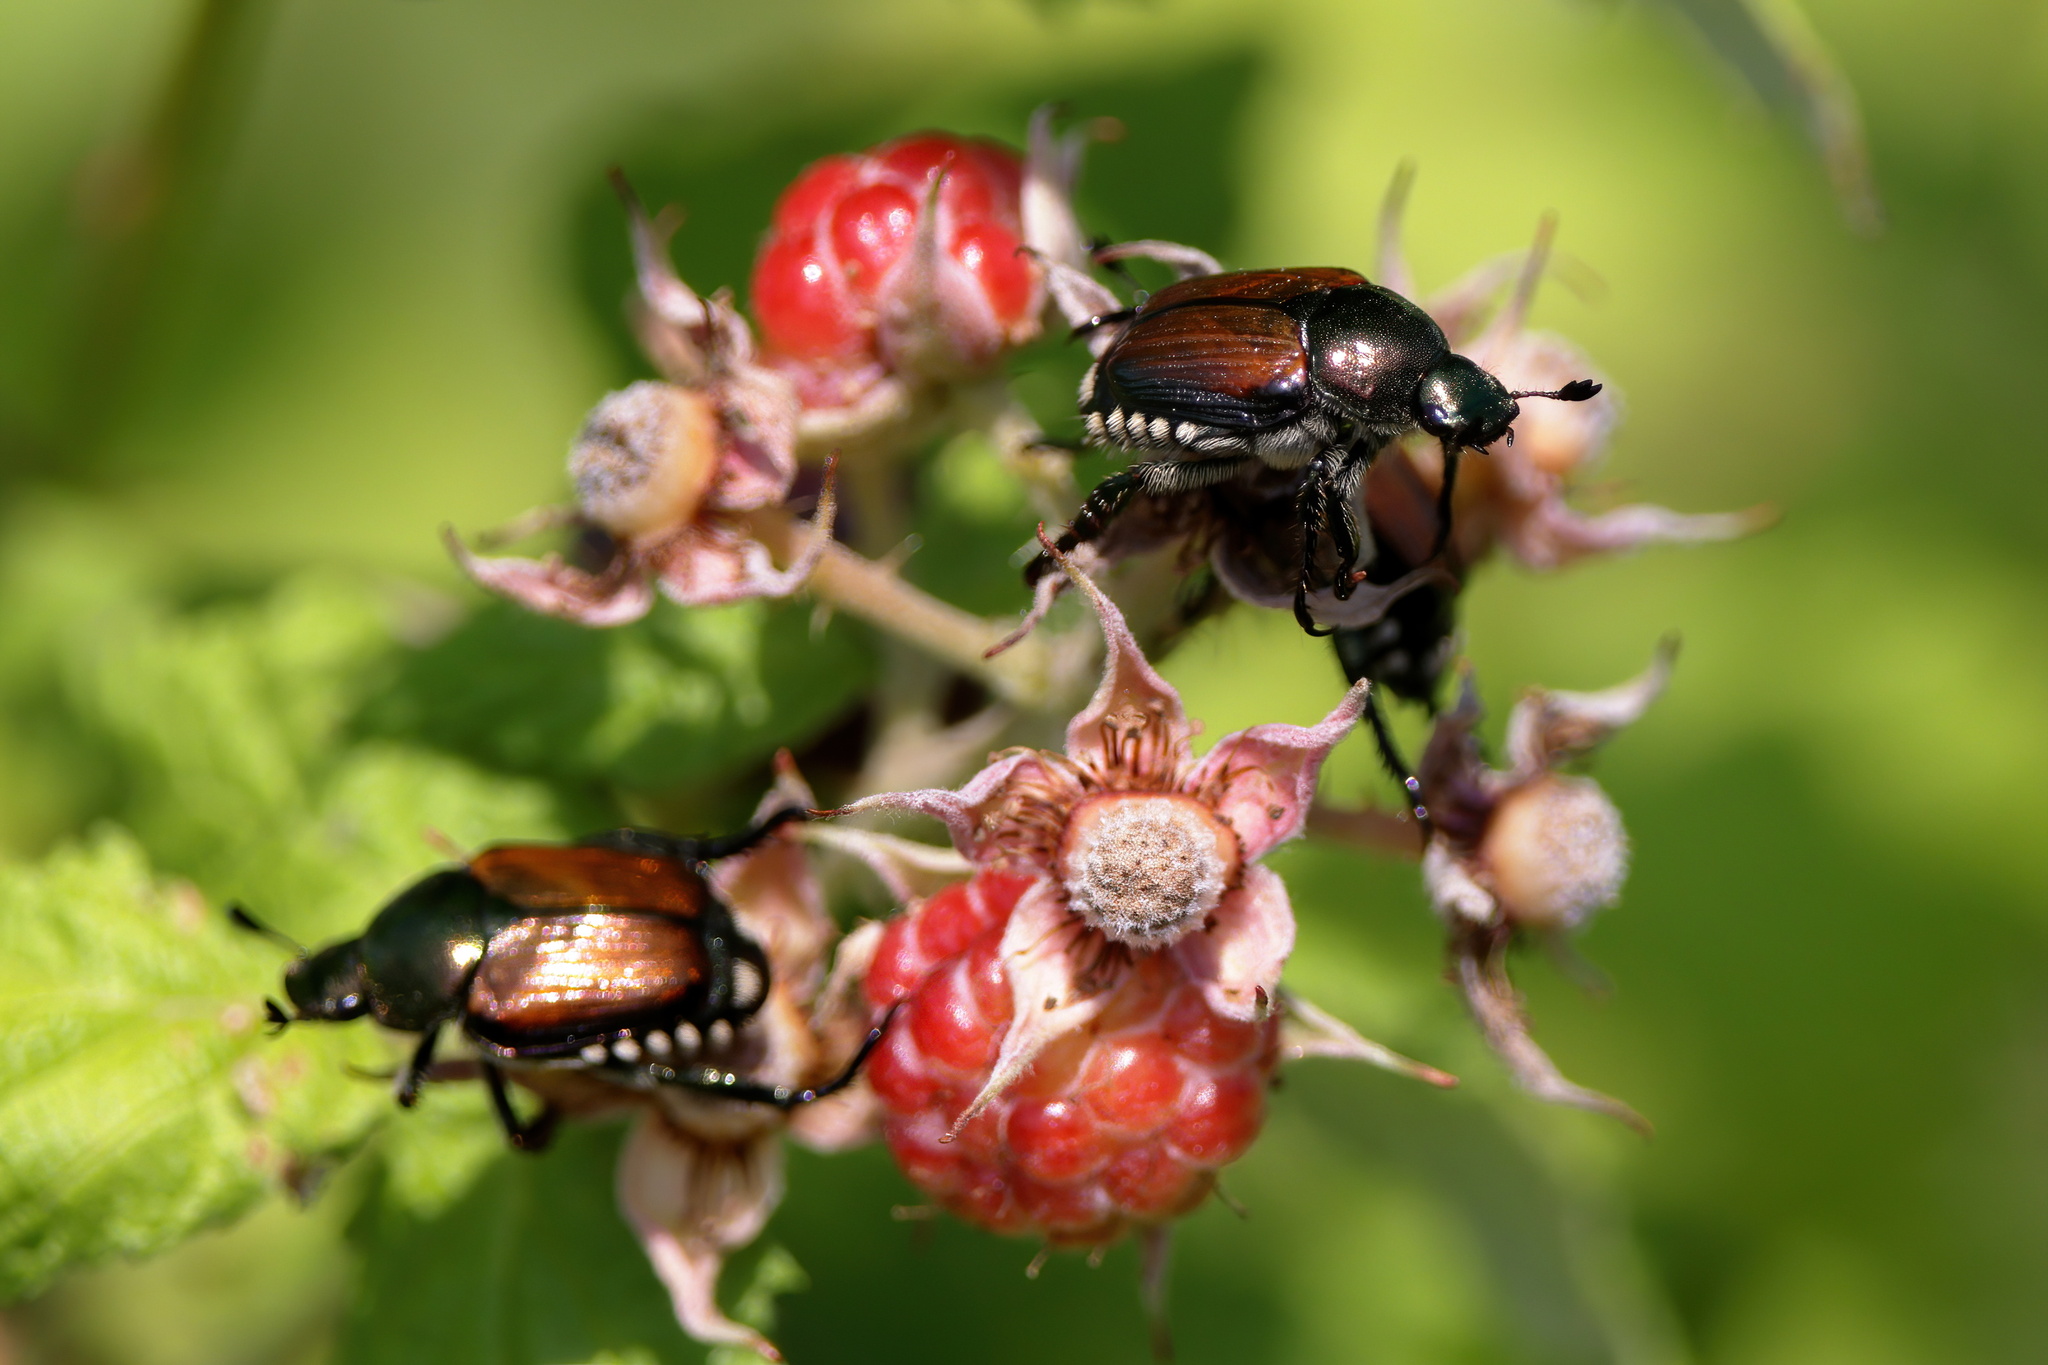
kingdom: Animalia
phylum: Arthropoda
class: Insecta
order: Coleoptera
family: Scarabaeidae
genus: Popillia
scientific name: Popillia japonica
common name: Japanese beetle
